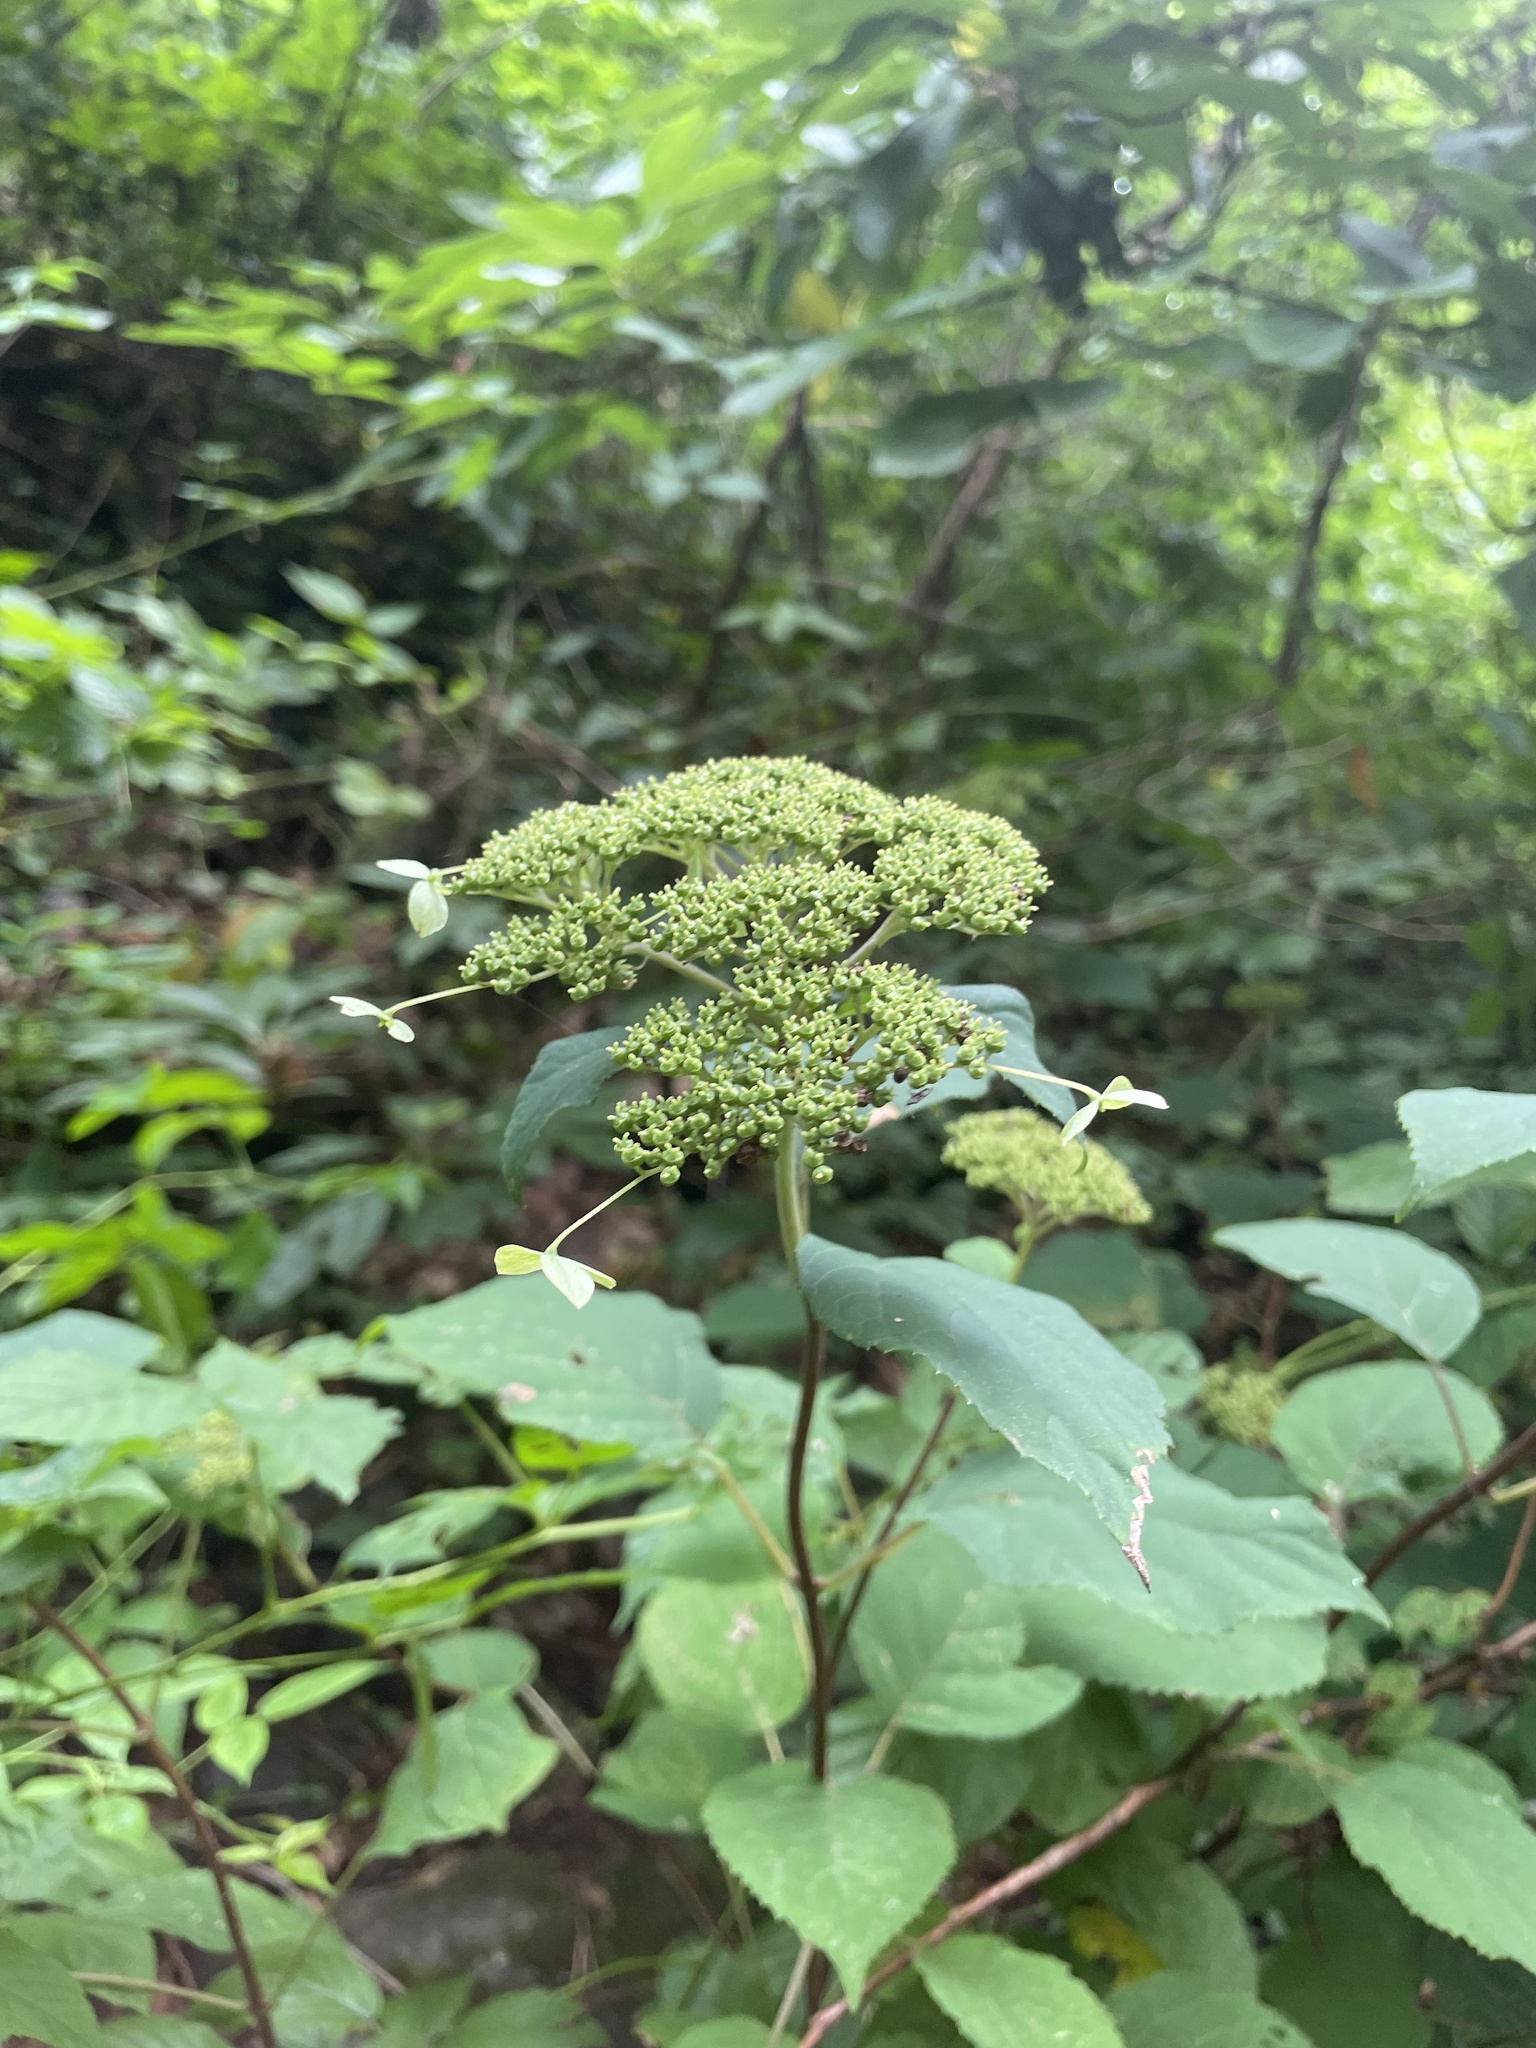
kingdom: Plantae
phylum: Tracheophyta
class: Magnoliopsida
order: Cornales
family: Hydrangeaceae
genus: Hydrangea
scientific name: Hydrangea arborescens
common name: Sevenbark
